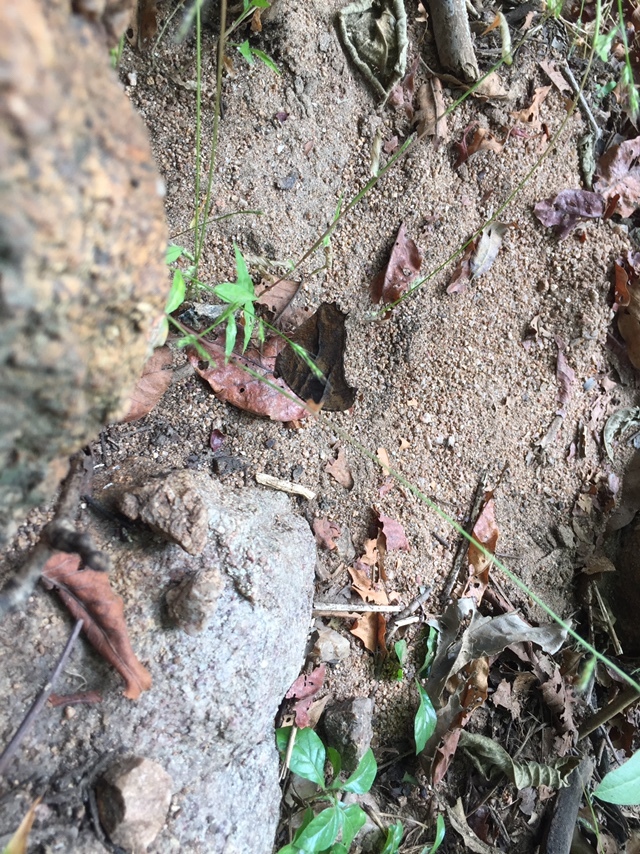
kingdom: Animalia
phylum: Arthropoda
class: Insecta
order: Lepidoptera
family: Nymphalidae
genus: Melanitis
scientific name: Melanitis leda
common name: Twilight brown
